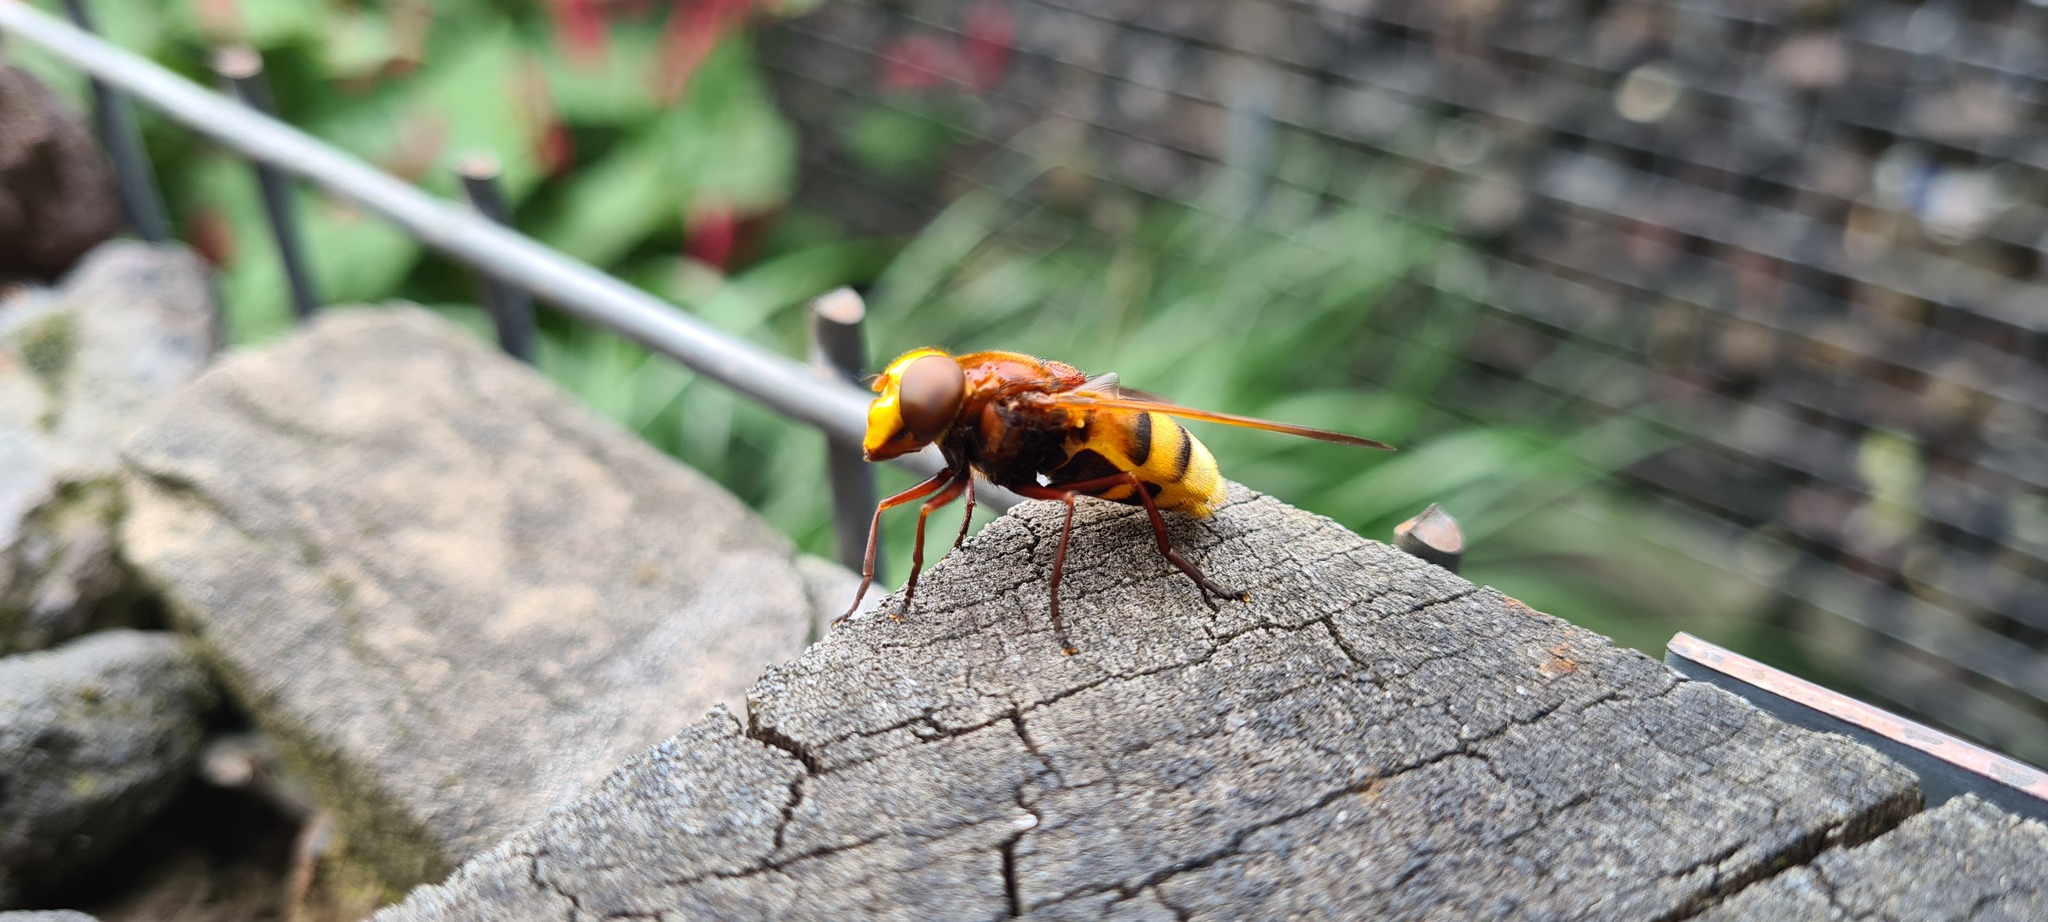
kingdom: Animalia
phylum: Arthropoda
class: Insecta
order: Diptera
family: Syrphidae
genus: Volucella
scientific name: Volucella zonaria
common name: Hornet hoverfly
